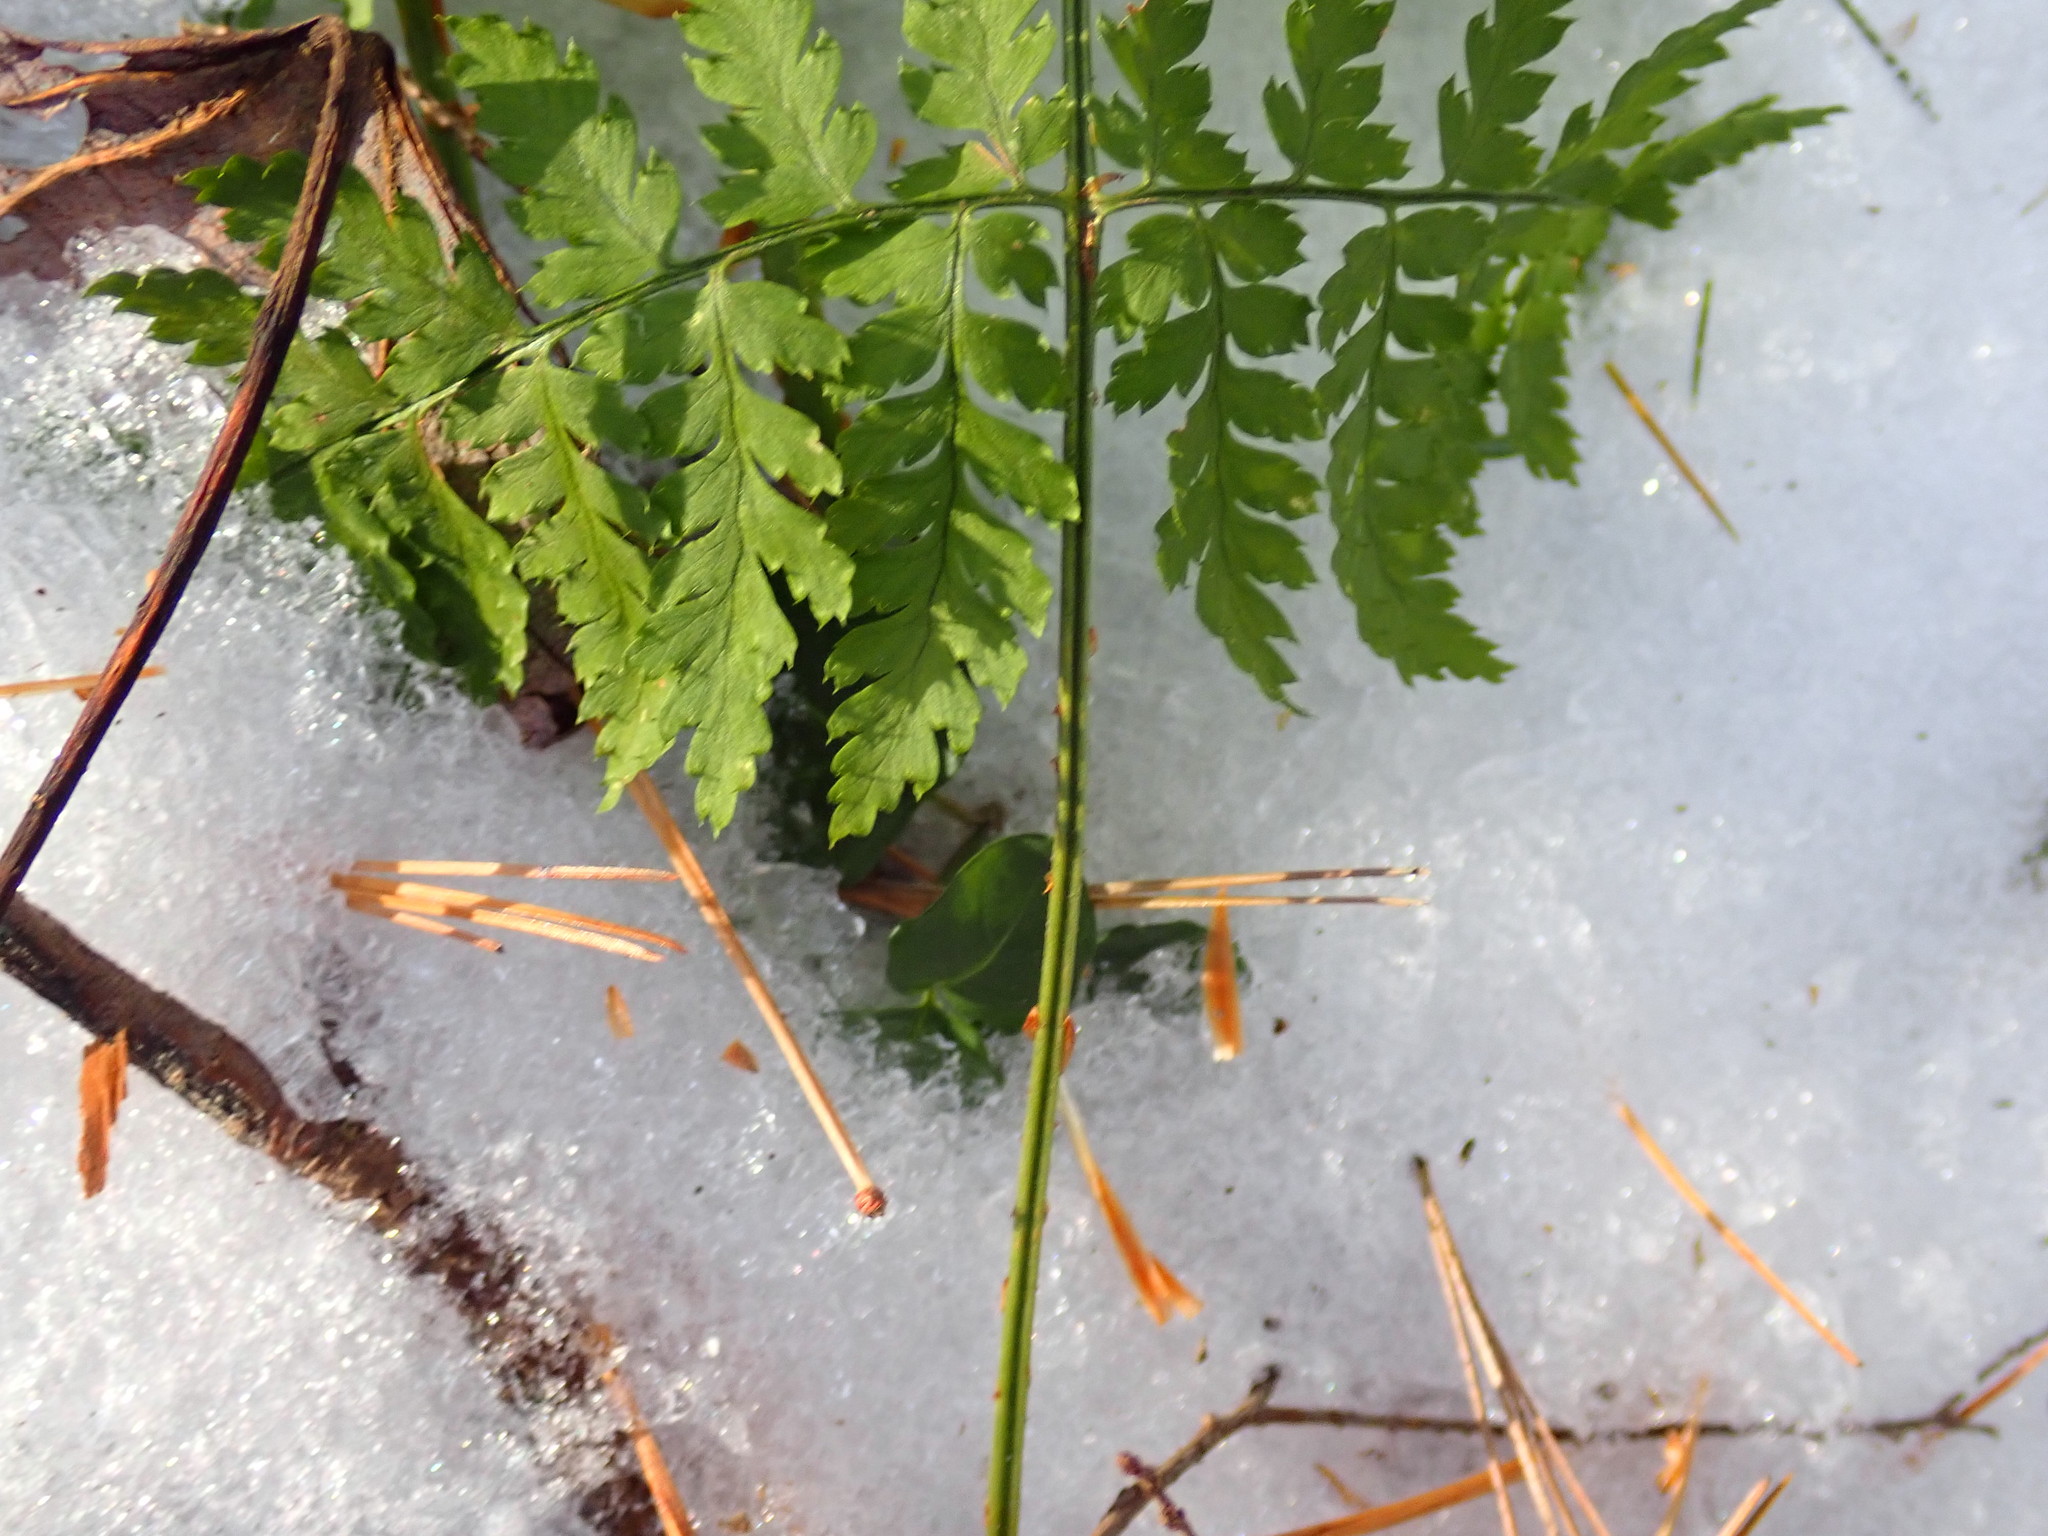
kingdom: Plantae
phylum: Tracheophyta
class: Polypodiopsida
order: Polypodiales
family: Dryopteridaceae
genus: Dryopteris
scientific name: Dryopteris intermedia
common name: Evergreen wood fern
